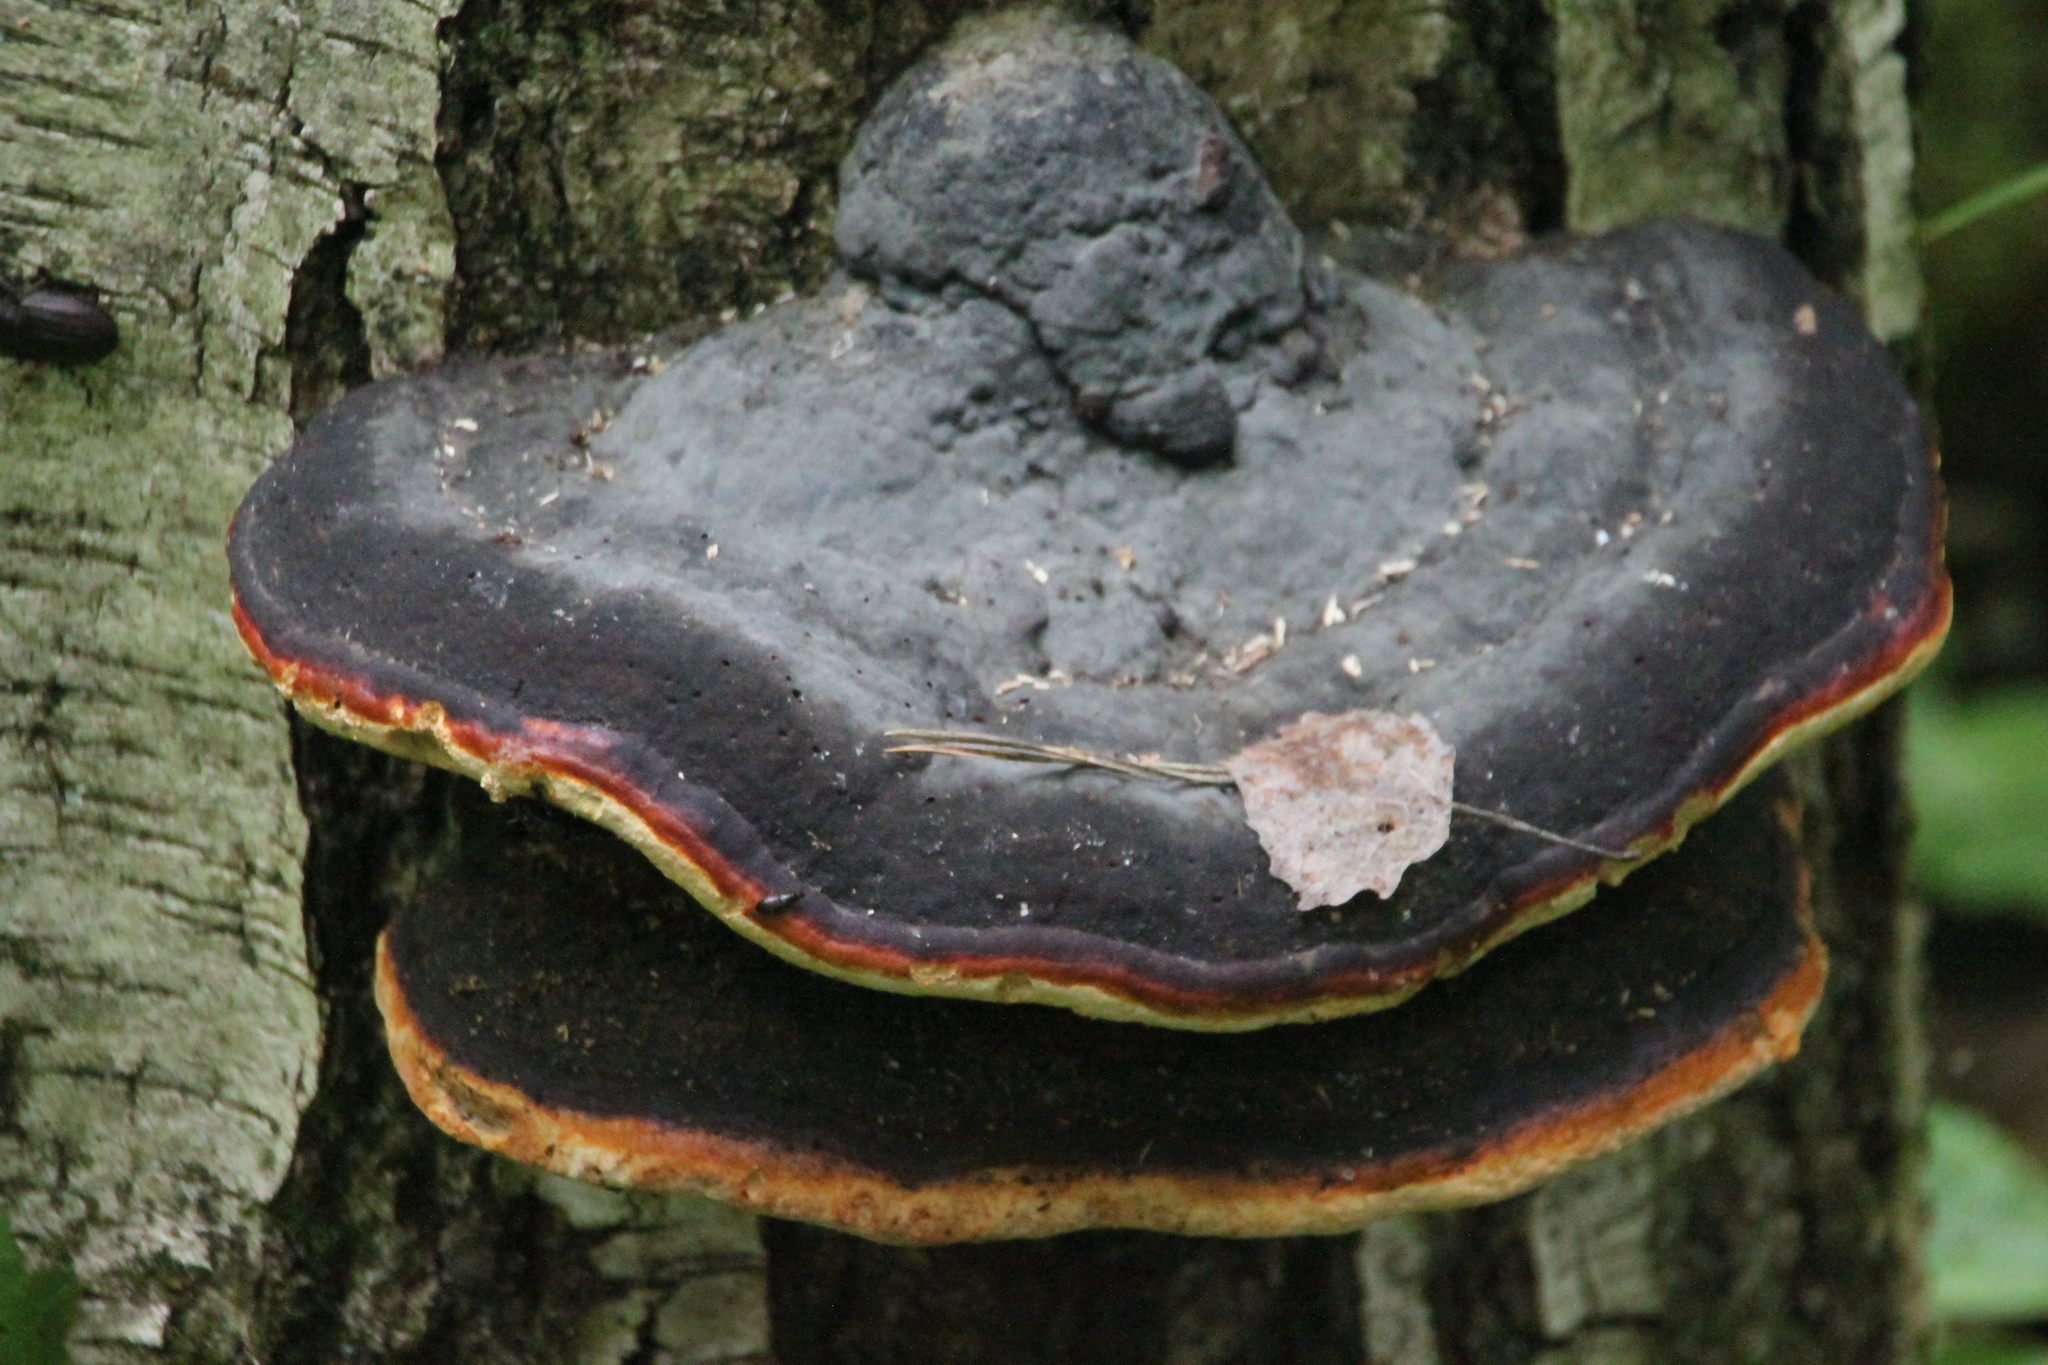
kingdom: Fungi
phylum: Basidiomycota
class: Agaricomycetes
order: Polyporales
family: Fomitopsidaceae
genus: Fomitopsis
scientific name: Fomitopsis pinicola
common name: Red-belted bracket
